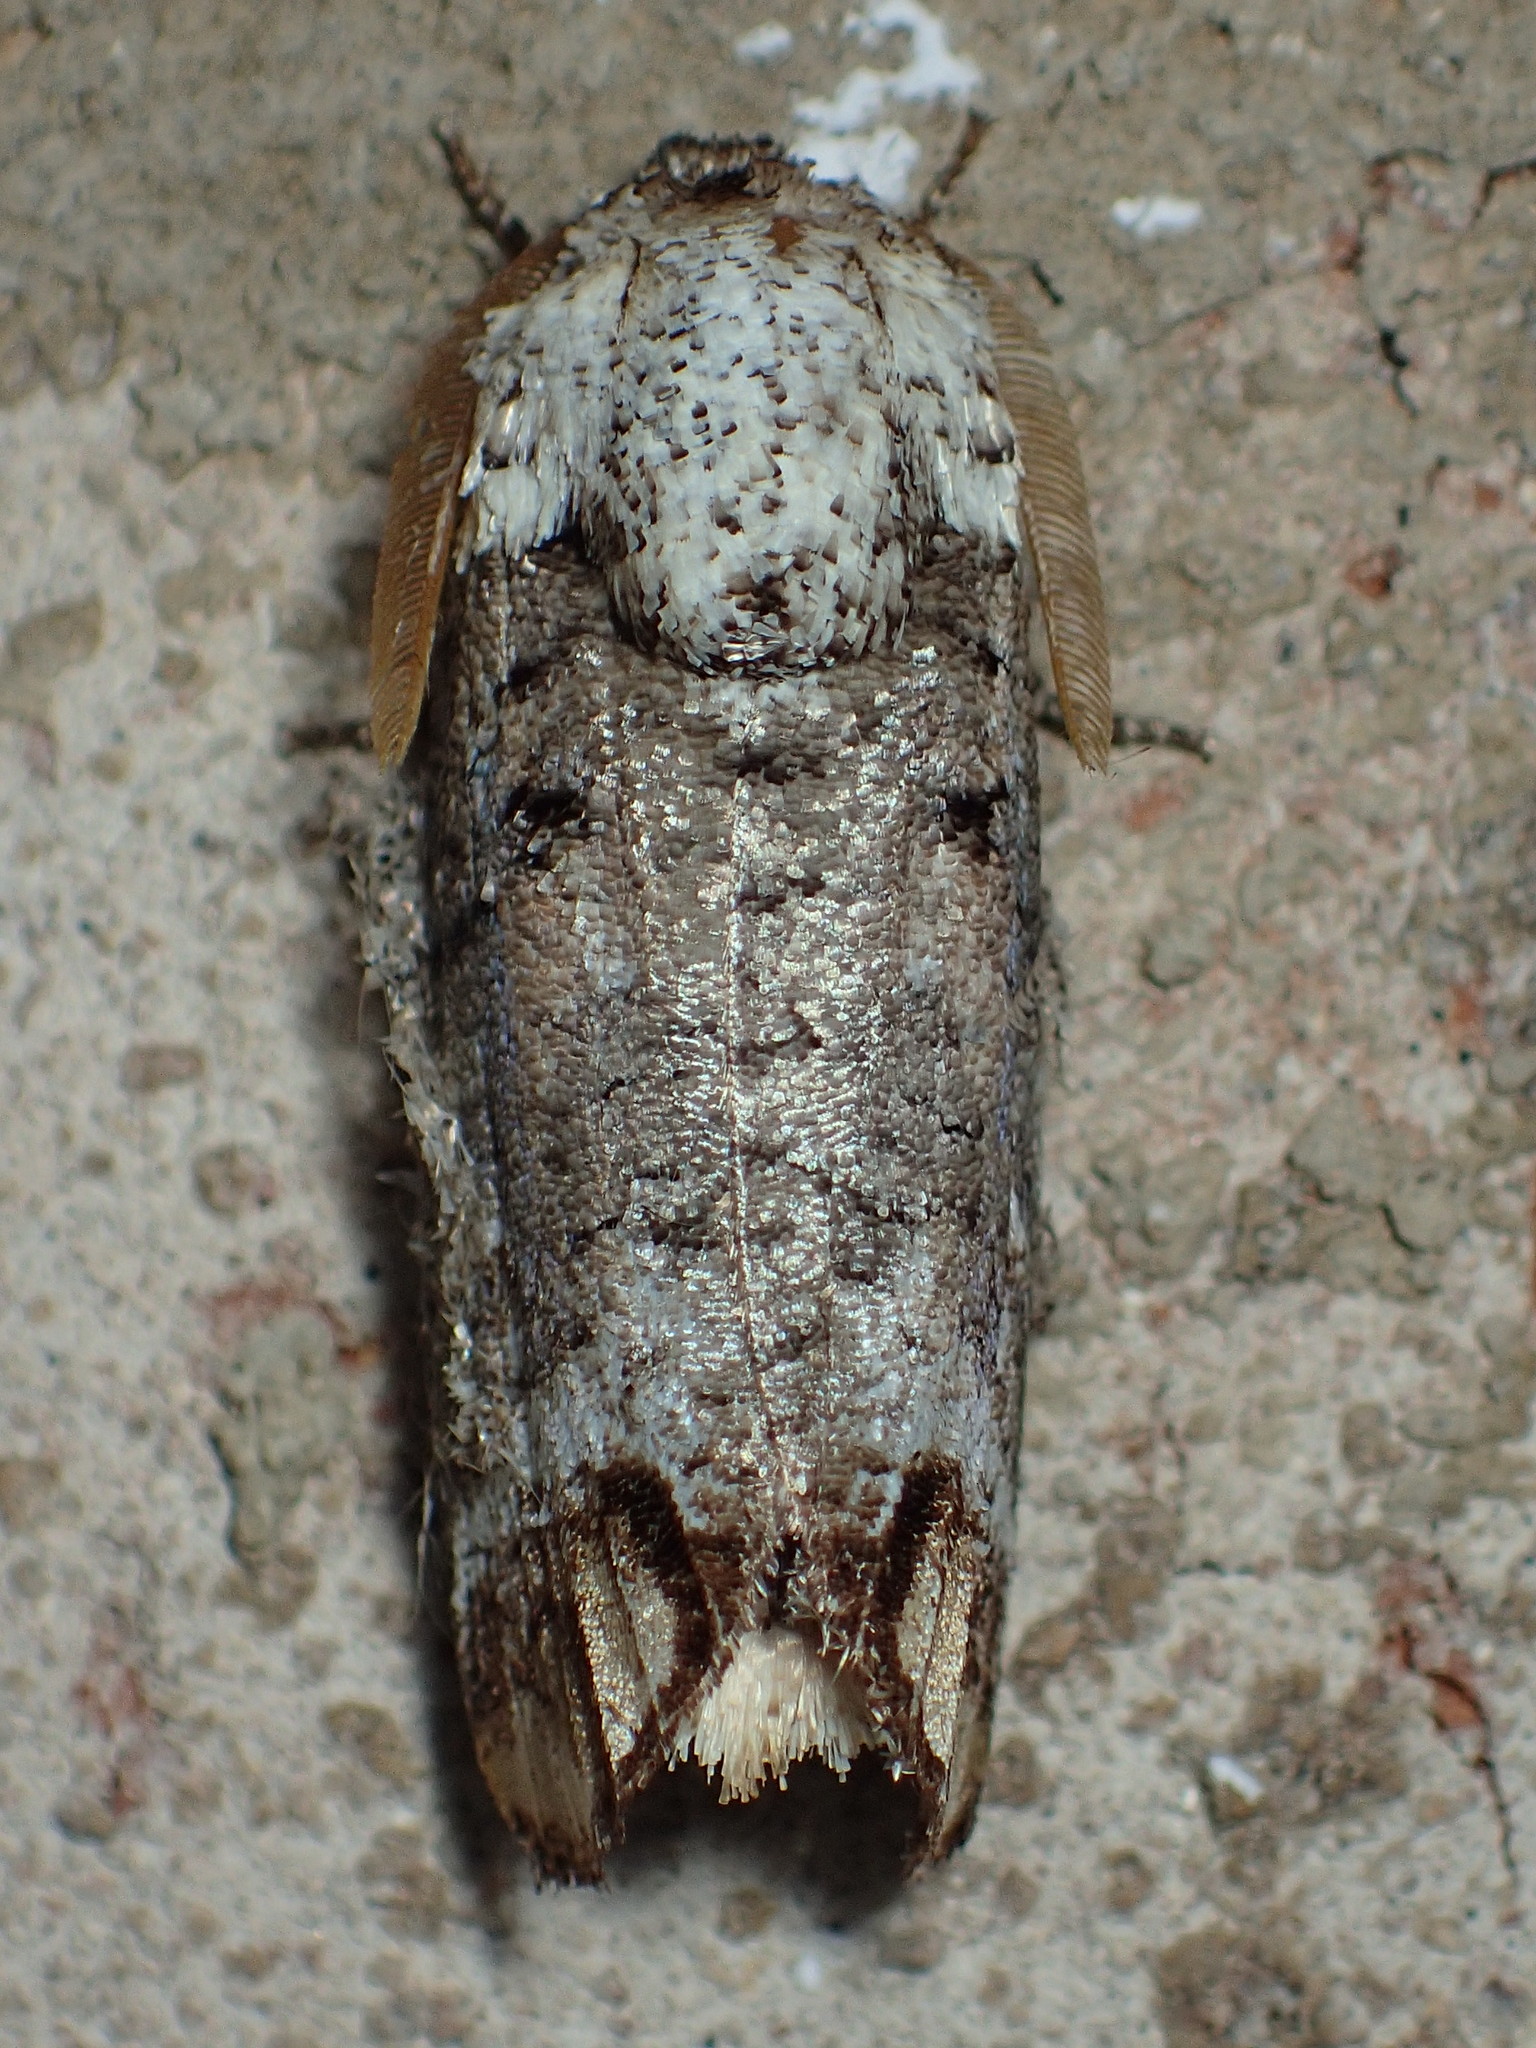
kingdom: Animalia
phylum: Arthropoda
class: Insecta
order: Lepidoptera
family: Cossidae
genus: Cossula
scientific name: Cossula magnifica
